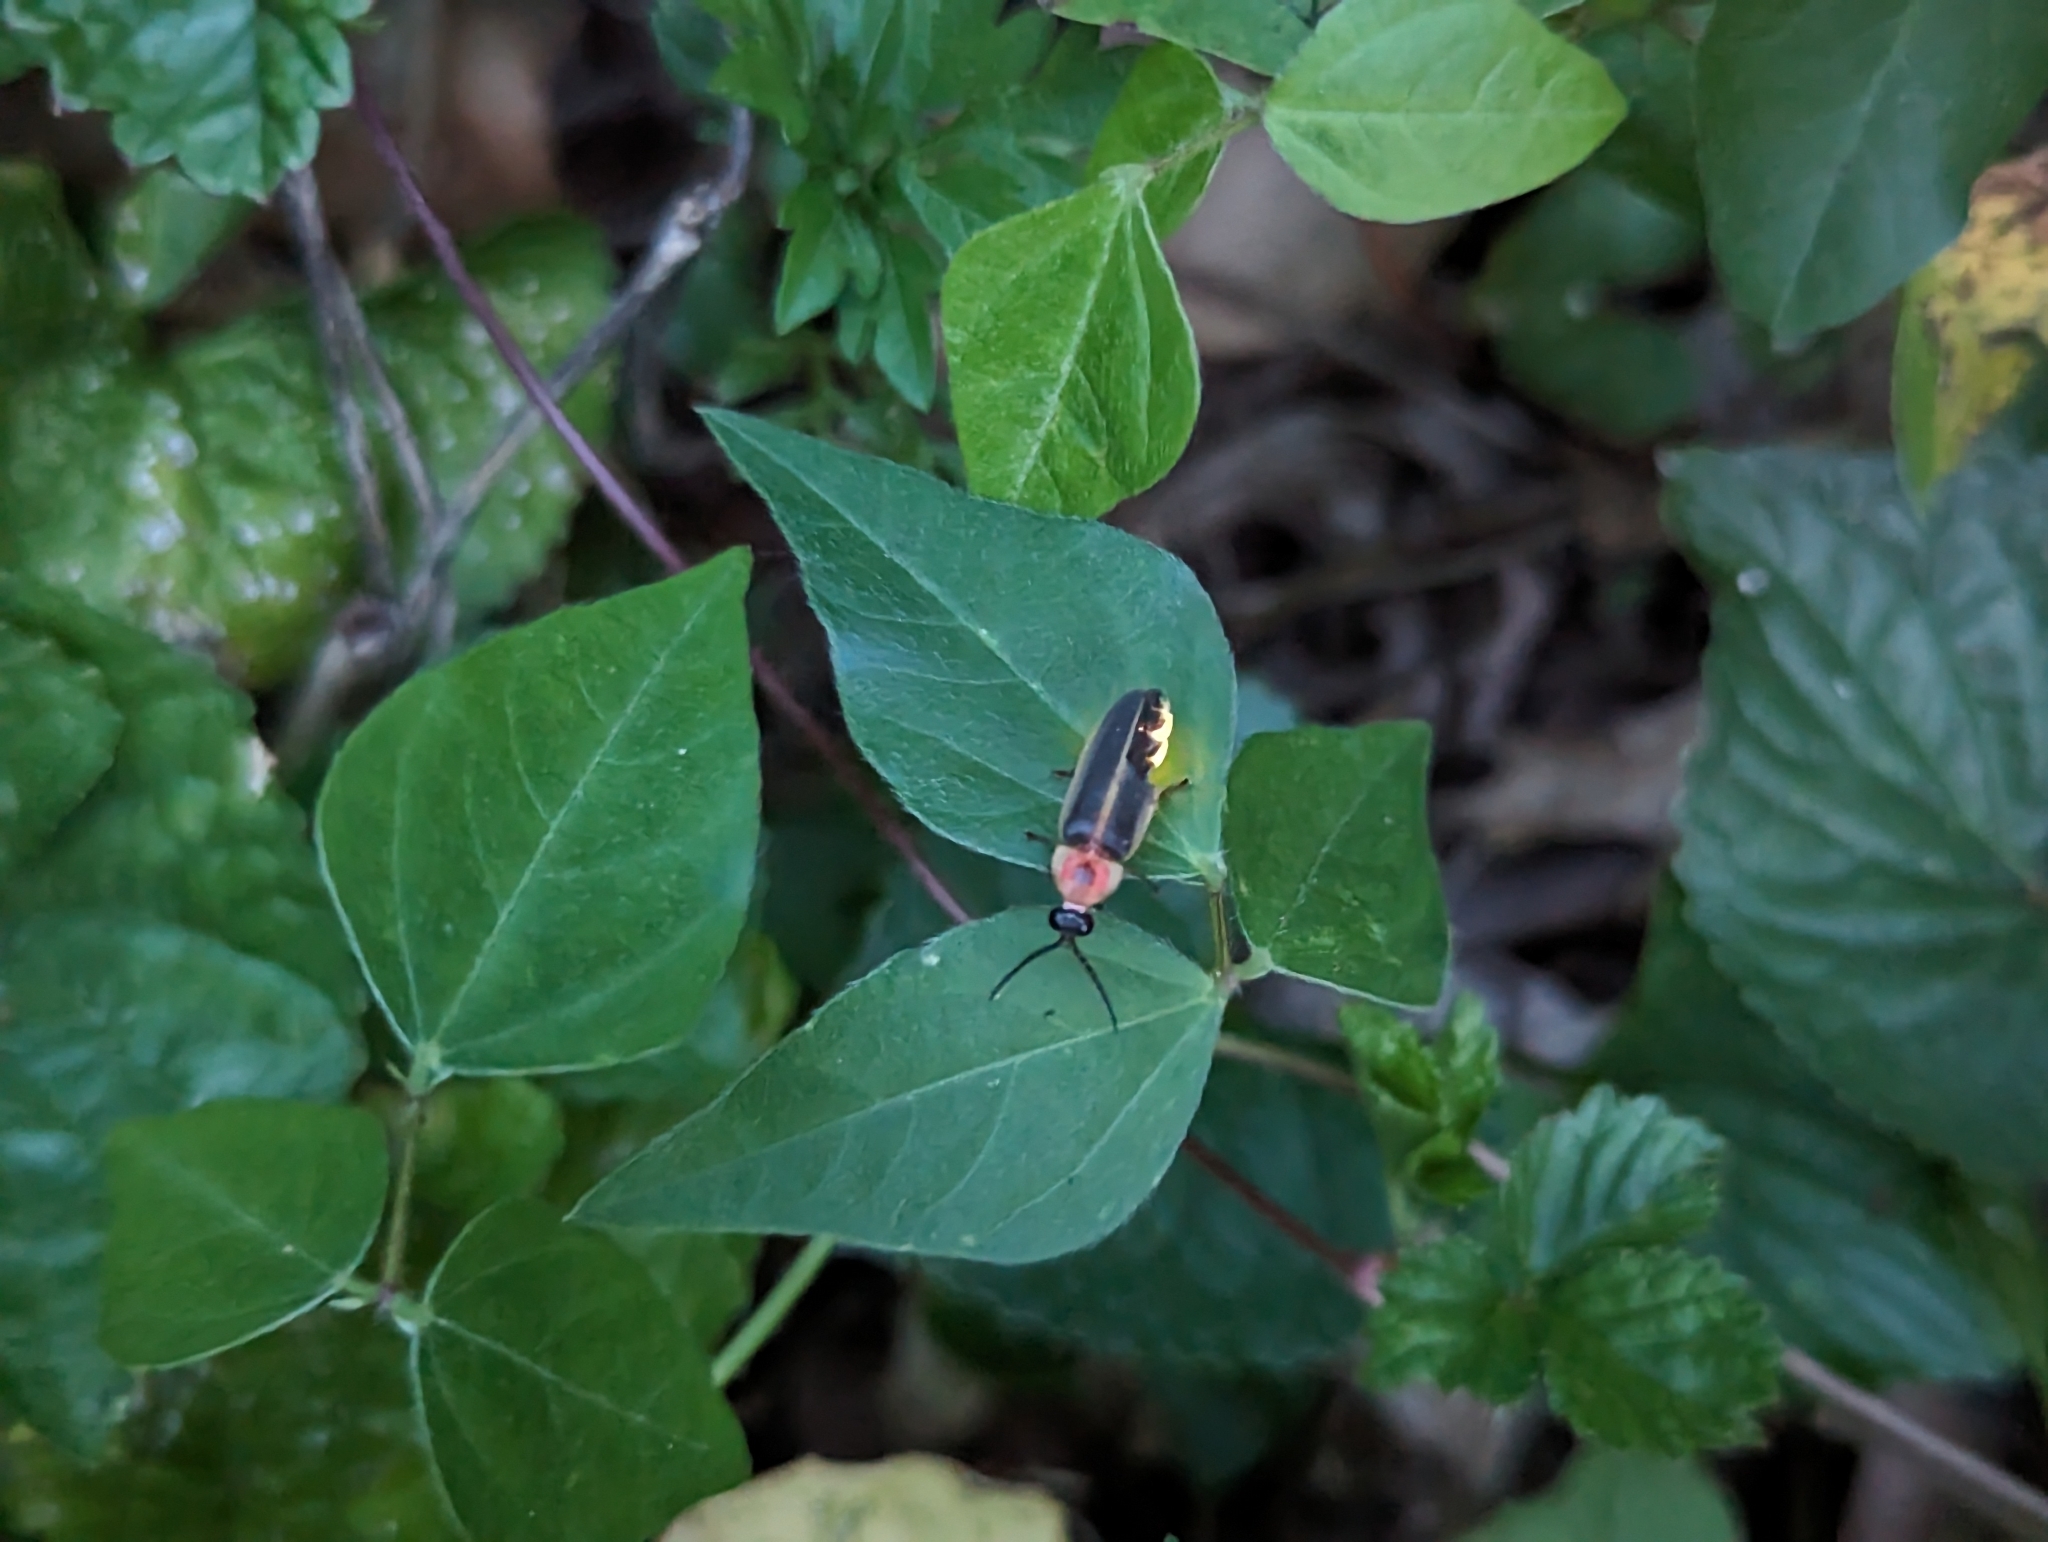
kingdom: Animalia
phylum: Arthropoda
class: Insecta
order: Coleoptera
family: Lampyridae
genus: Photinus
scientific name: Photinus pyralis
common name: Big dipper firefly
